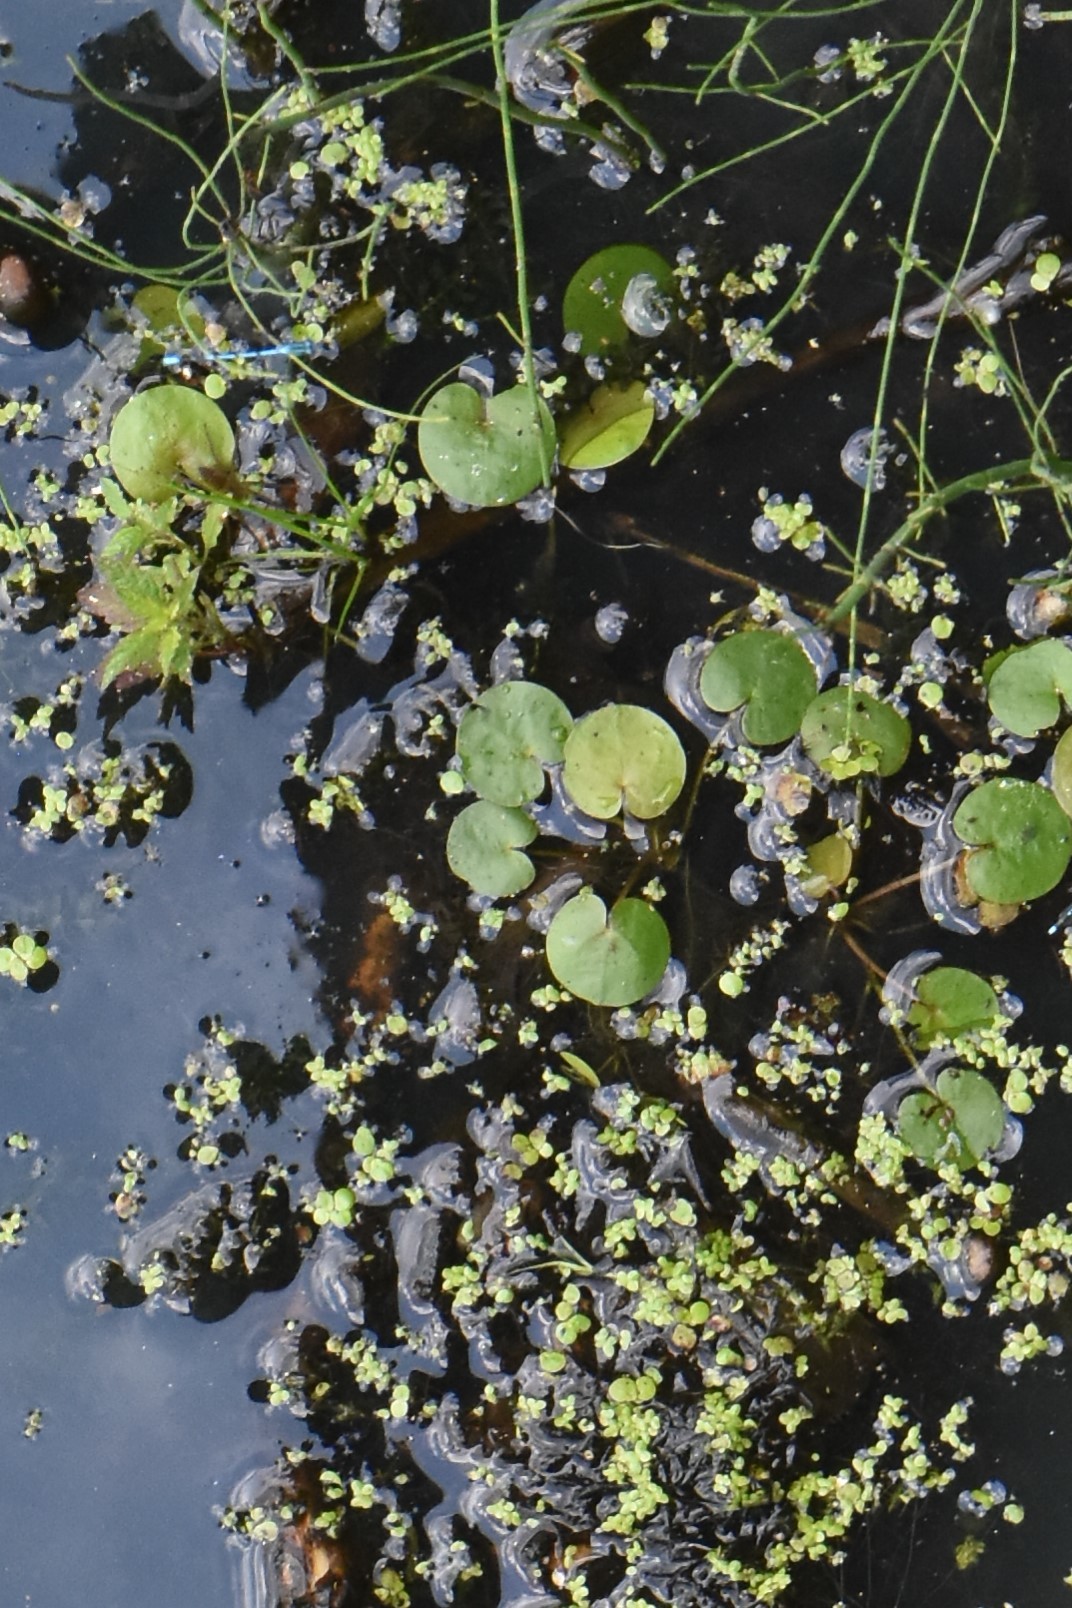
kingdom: Plantae
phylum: Tracheophyta
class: Liliopsida
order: Alismatales
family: Hydrocharitaceae
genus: Hydrocharis
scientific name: Hydrocharis morsus-ranae
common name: Frogbit
